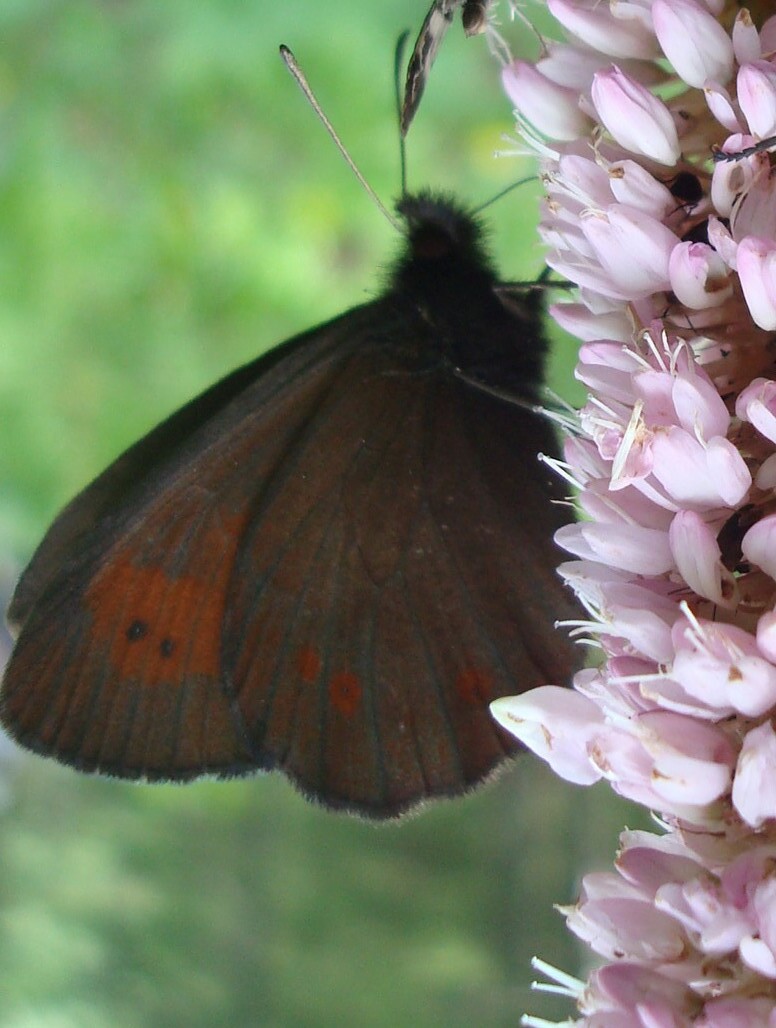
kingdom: Animalia
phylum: Arthropoda
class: Insecta
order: Lepidoptera
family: Nymphalidae
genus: Erebia
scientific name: Erebia euryale
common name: Large ringlet
